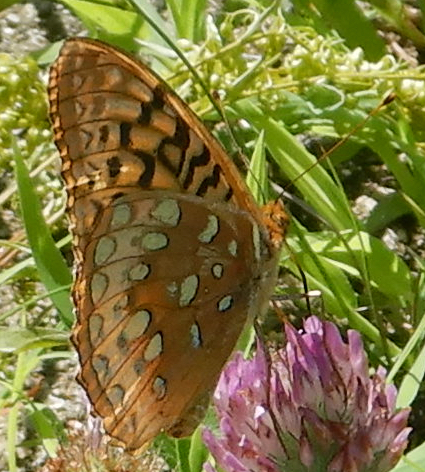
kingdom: Animalia
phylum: Arthropoda
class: Insecta
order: Lepidoptera
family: Nymphalidae
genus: Speyeria
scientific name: Speyeria cybele
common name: Great spangled fritillary
